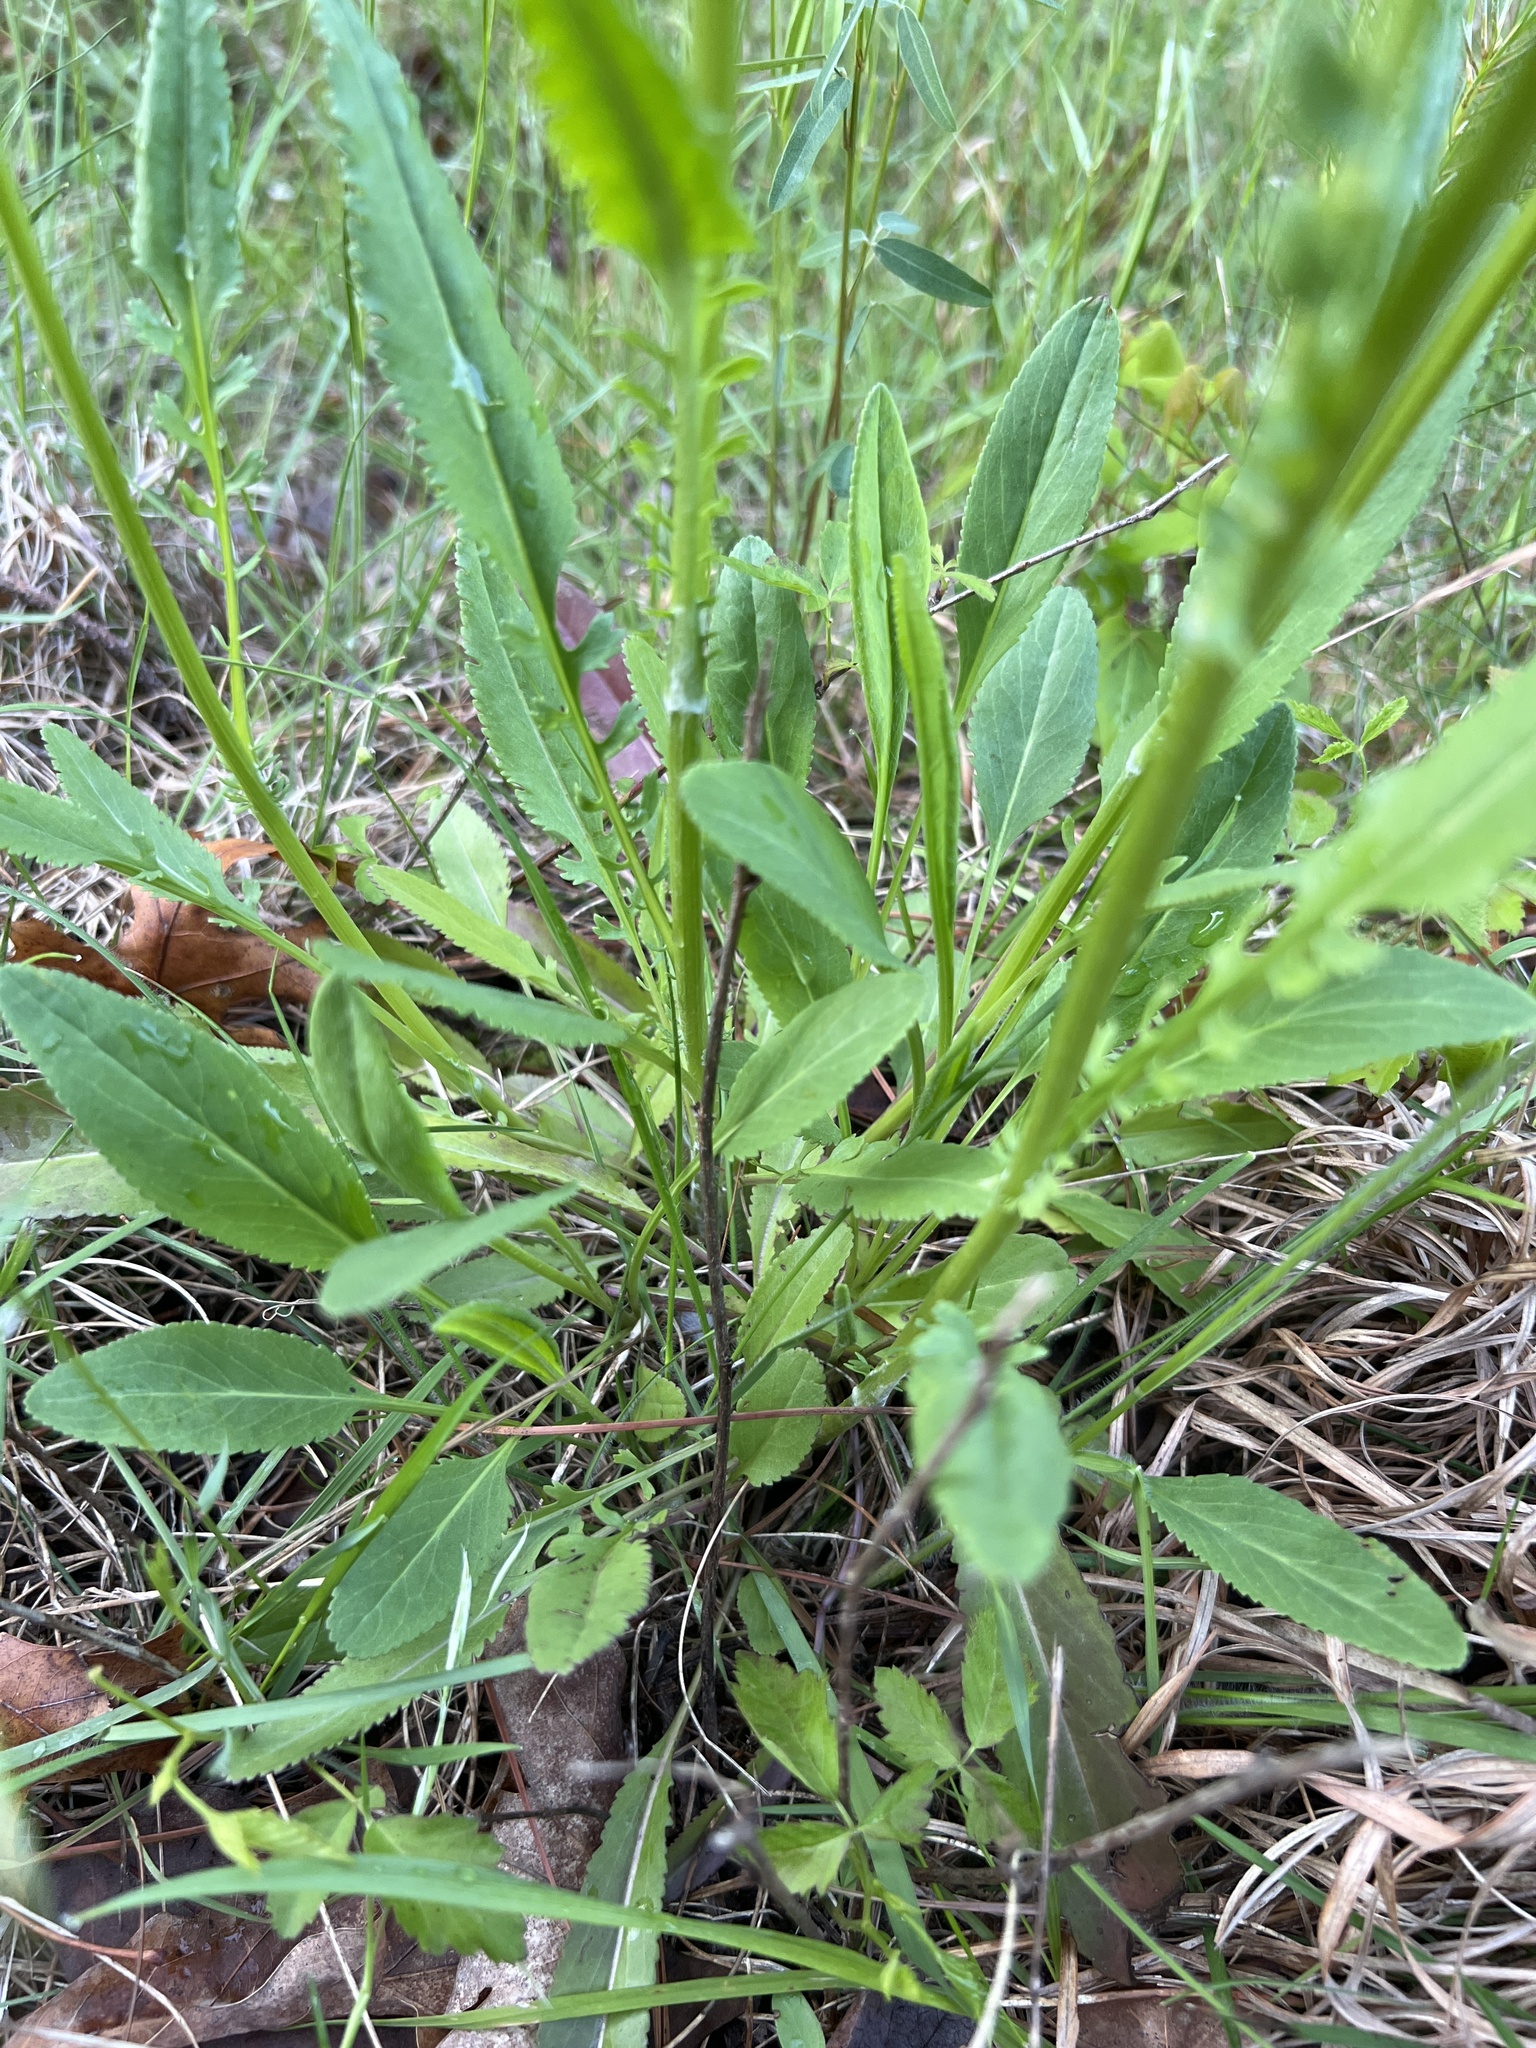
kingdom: Plantae
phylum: Tracheophyta
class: Magnoliopsida
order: Asterales
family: Asteraceae
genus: Packera
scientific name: Packera anonyma
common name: Small ragwort
